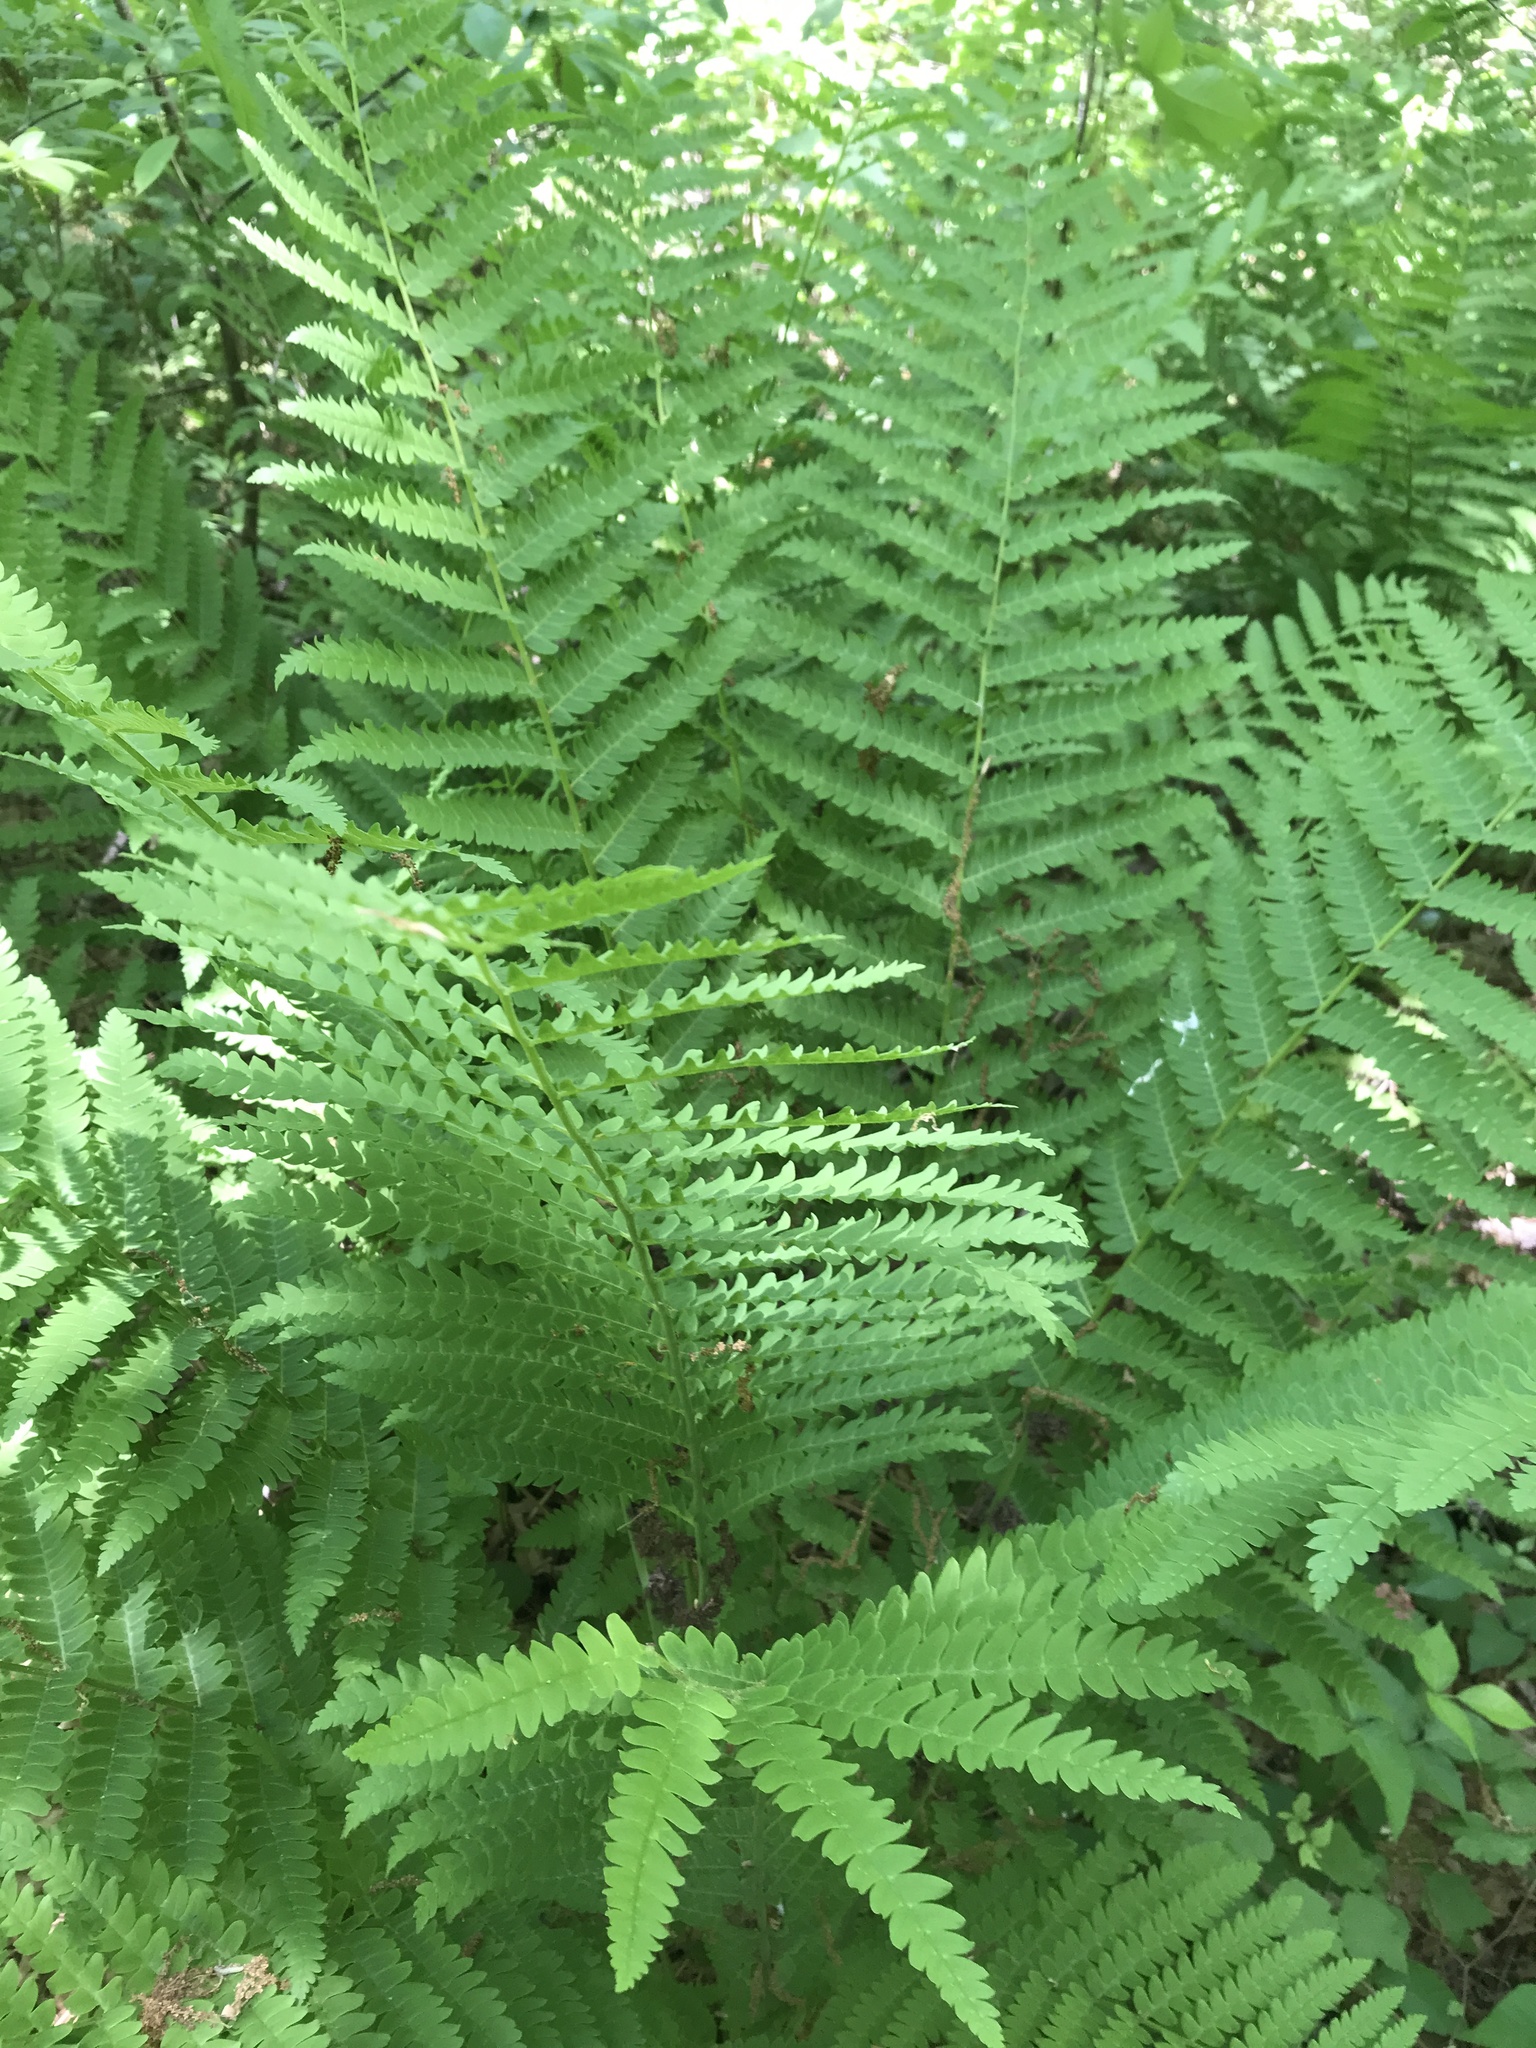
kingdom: Plantae
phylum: Tracheophyta
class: Polypodiopsida
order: Osmundales
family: Osmundaceae
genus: Claytosmunda
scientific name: Claytosmunda claytoniana
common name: Clayton's fern
